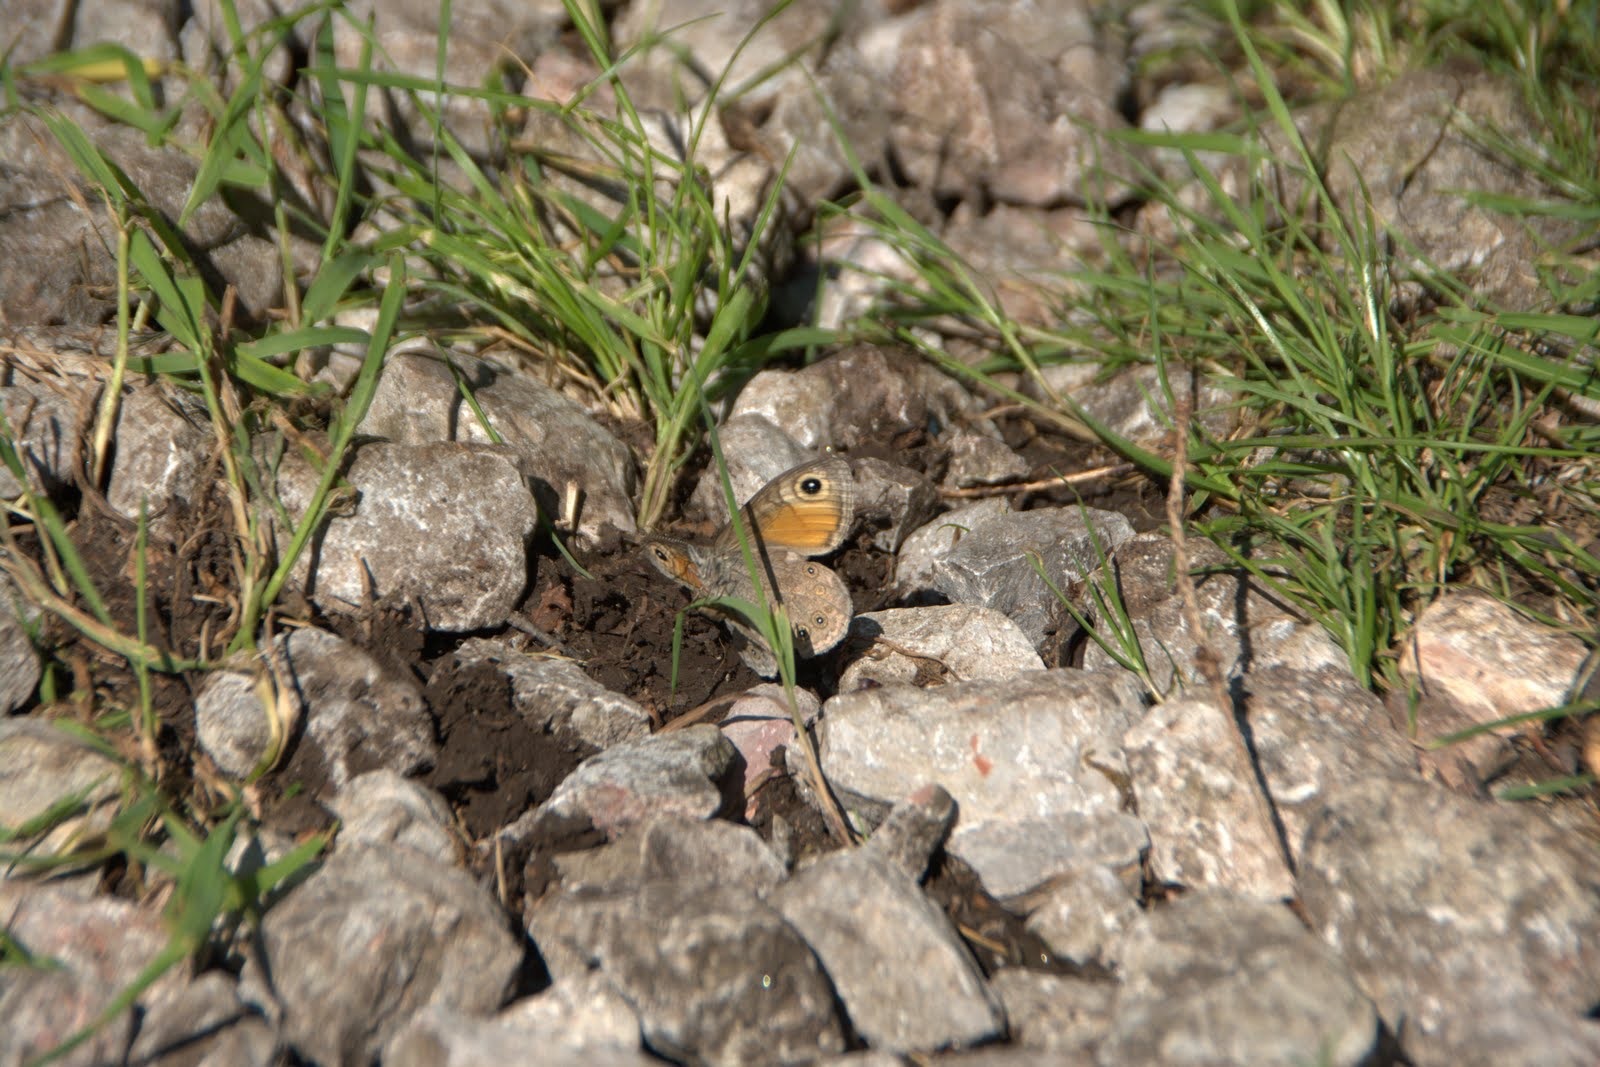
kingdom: Animalia
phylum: Arthropoda
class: Insecta
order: Lepidoptera
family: Nymphalidae
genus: Pararge
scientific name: Pararge Lasiommata maera
